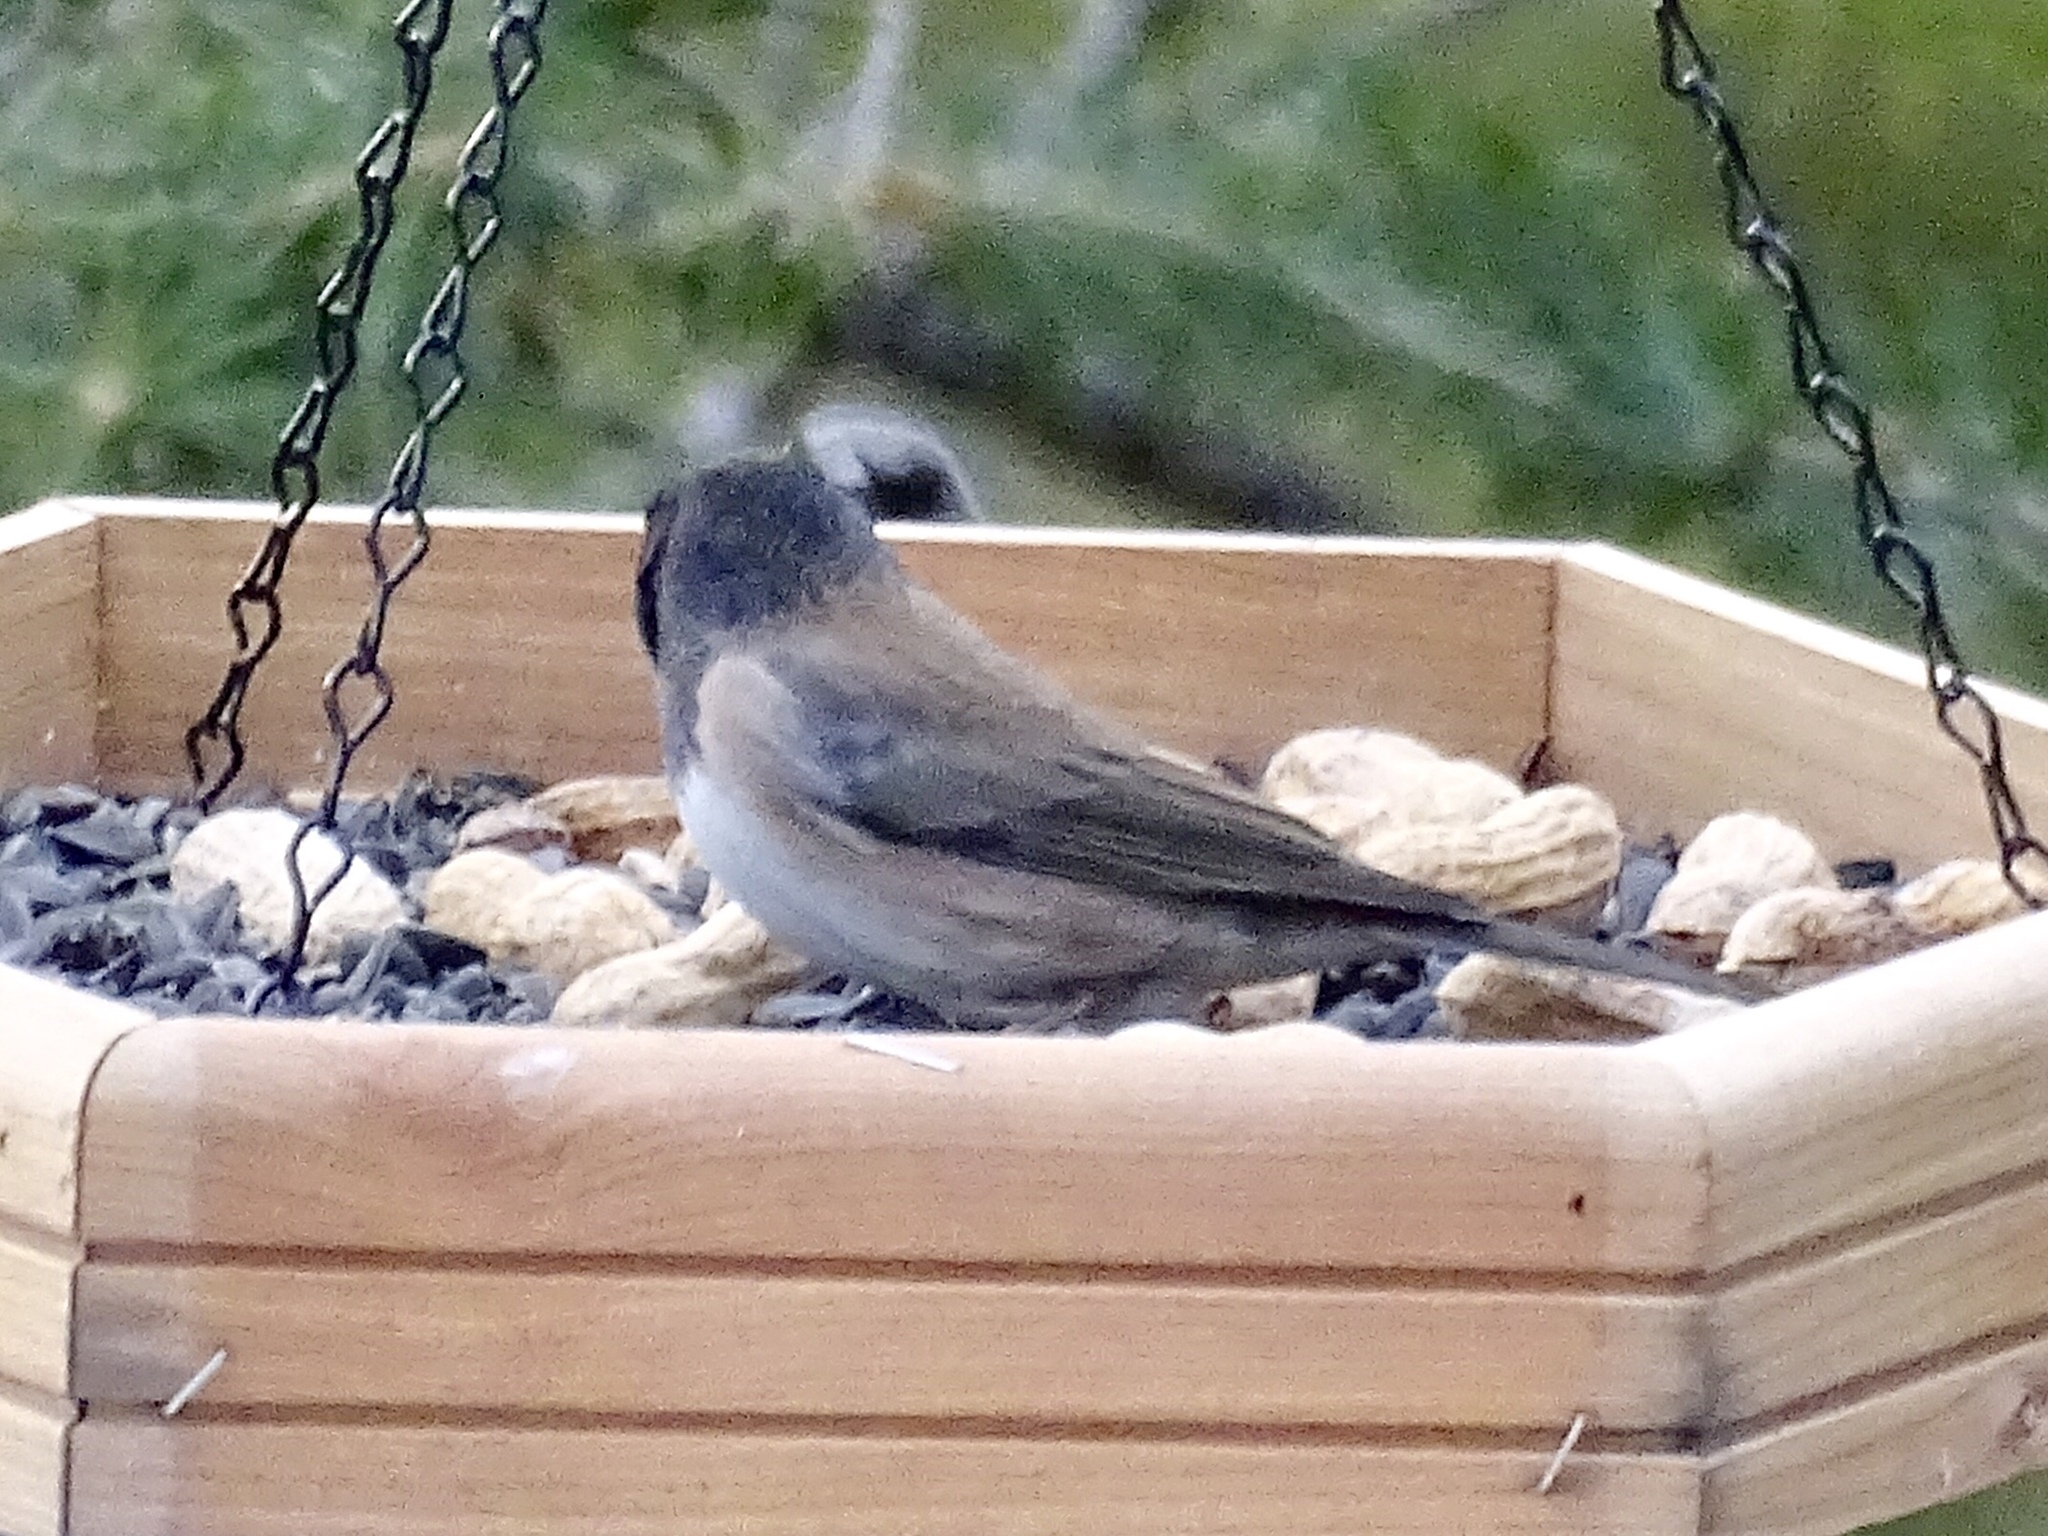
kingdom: Animalia
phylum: Chordata
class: Aves
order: Passeriformes
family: Passerellidae
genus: Junco
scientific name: Junco hyemalis
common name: Dark-eyed junco
